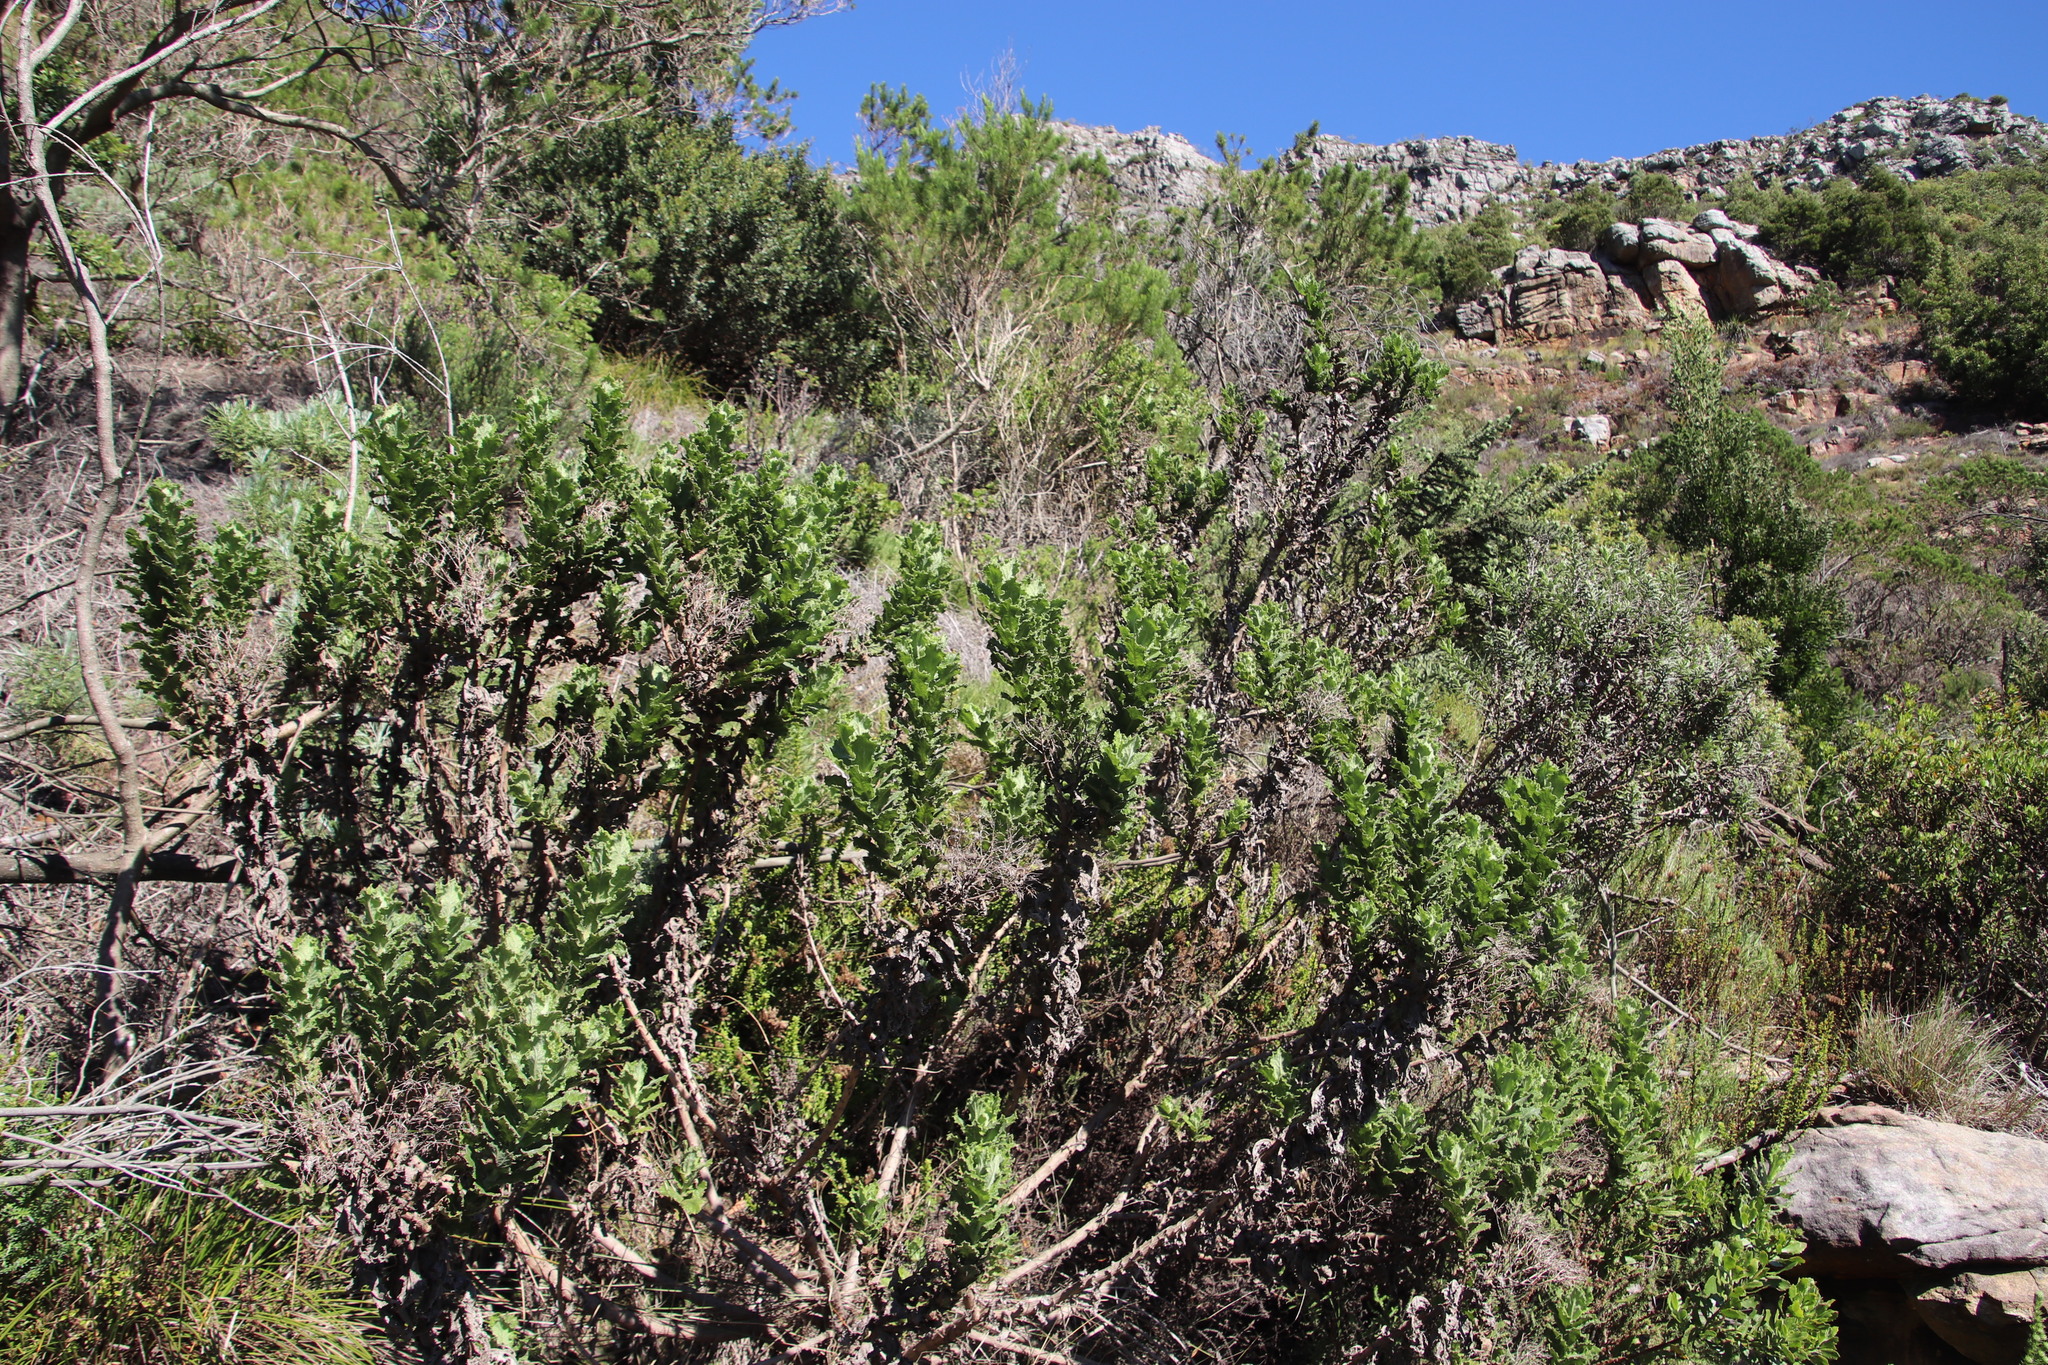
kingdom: Plantae
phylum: Tracheophyta
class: Magnoliopsida
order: Asterales
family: Asteraceae
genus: Senecio
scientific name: Senecio rigidus
